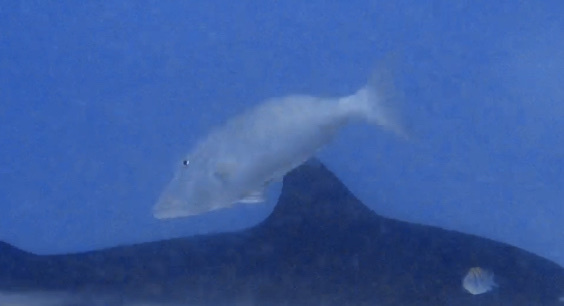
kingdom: Animalia
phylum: Chordata
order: Perciformes
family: Lethrinidae
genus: Lethrinus
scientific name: Lethrinus olivaceus
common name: Longnose emperor
